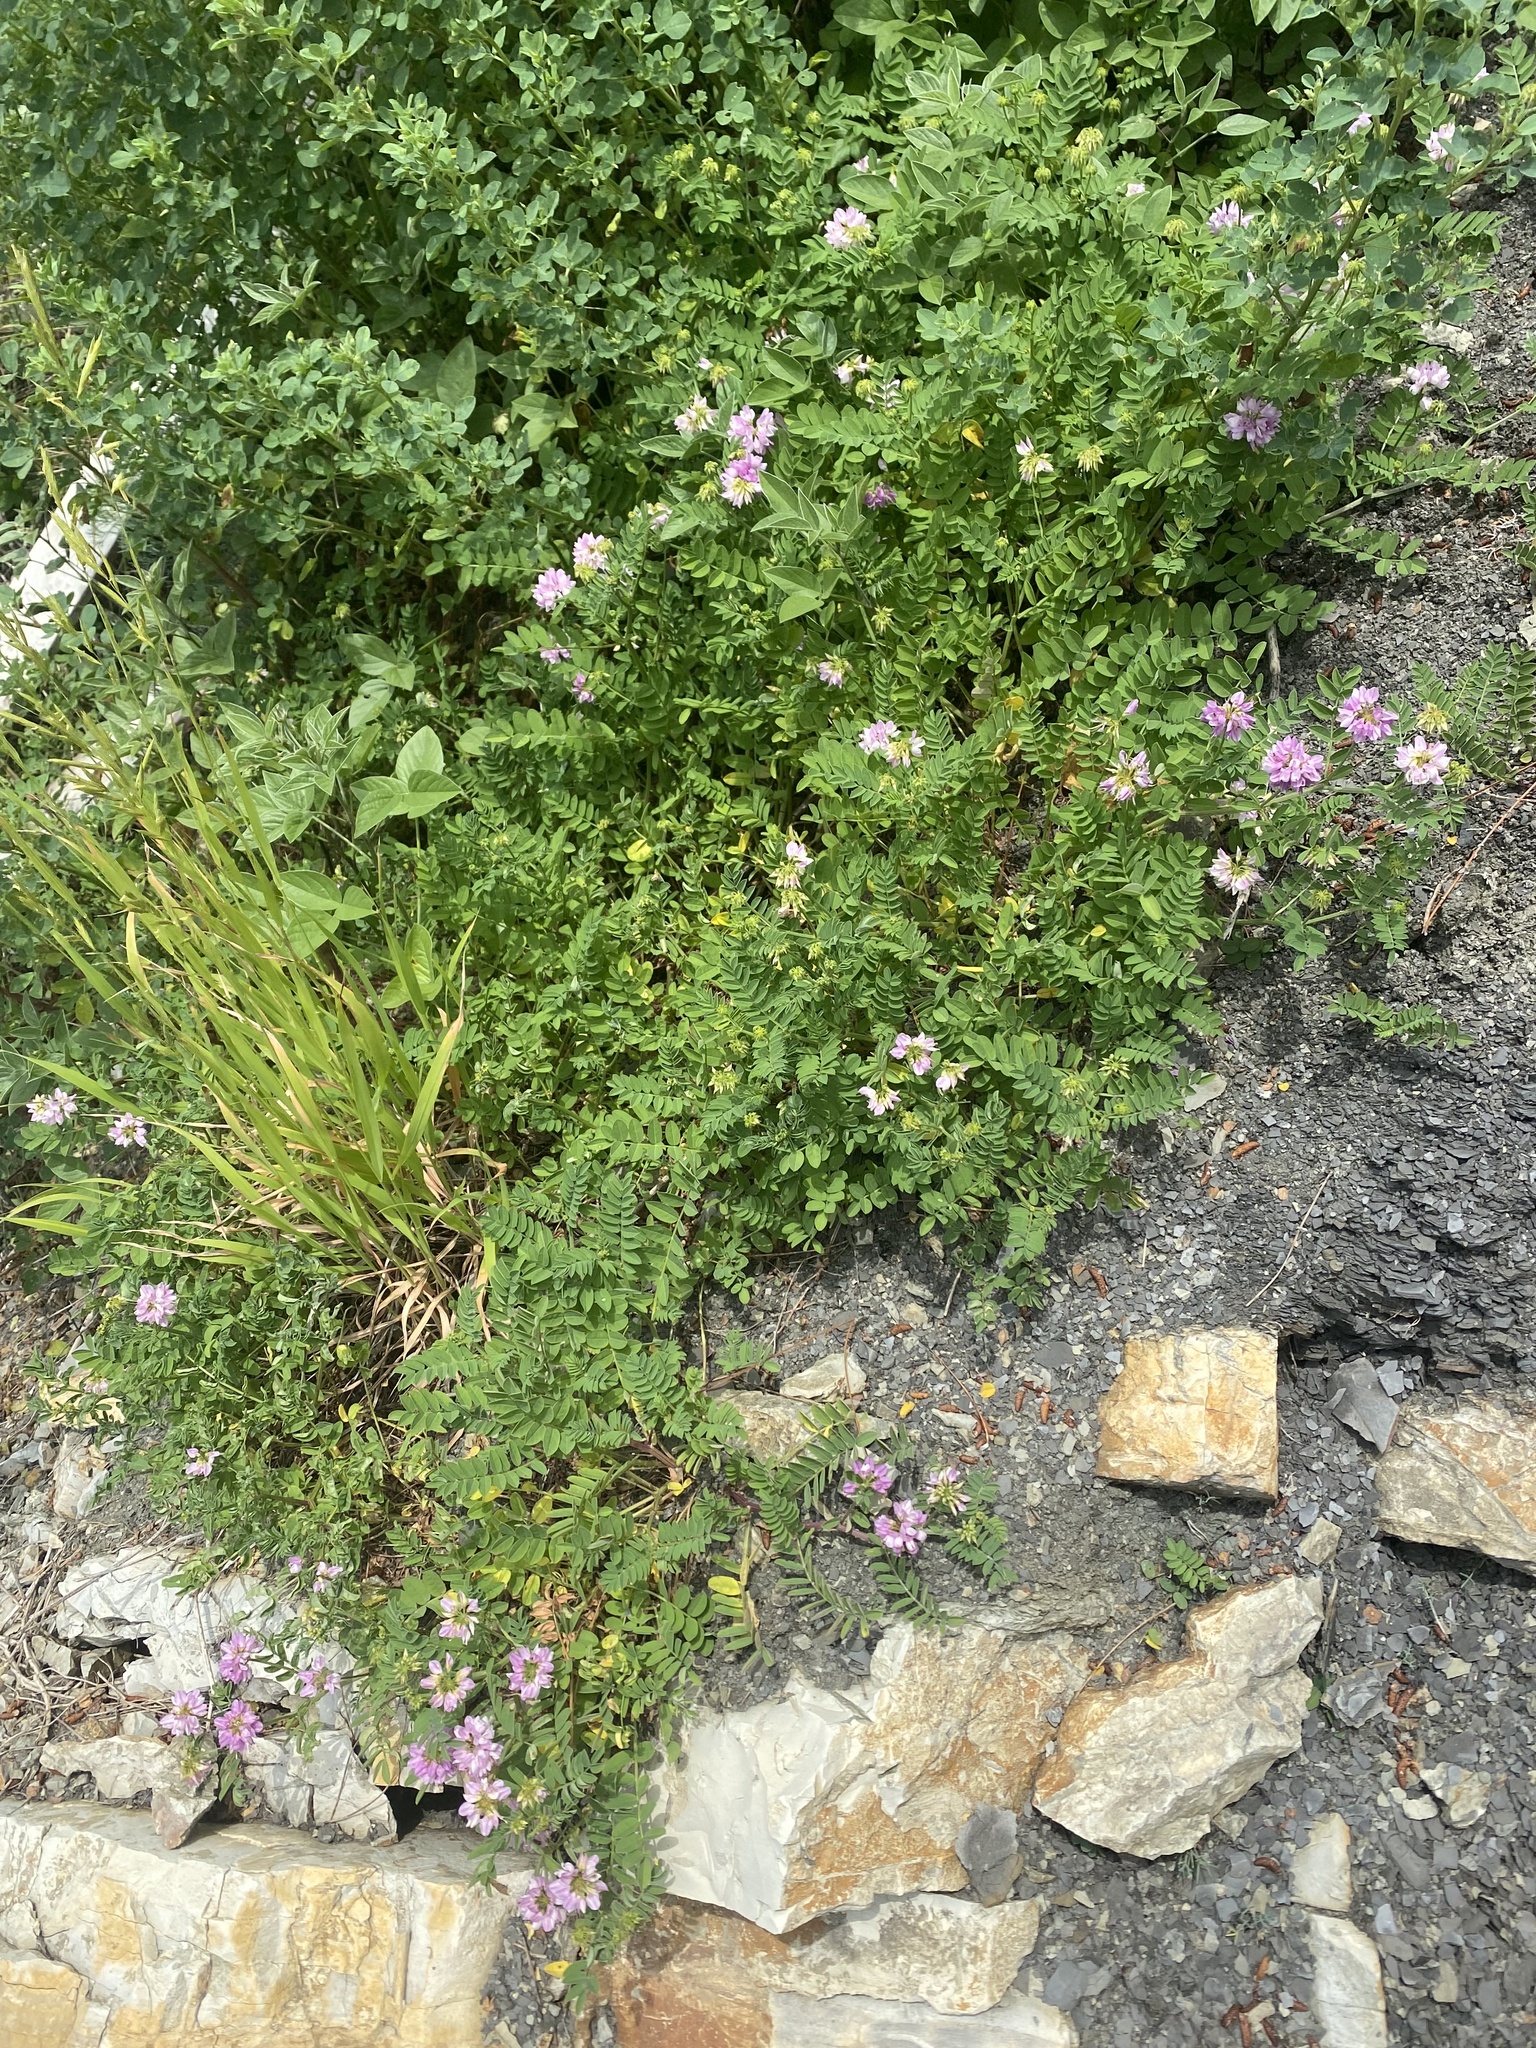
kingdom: Plantae
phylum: Tracheophyta
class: Magnoliopsida
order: Fabales
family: Fabaceae
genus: Coronilla
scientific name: Coronilla varia
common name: Crownvetch
